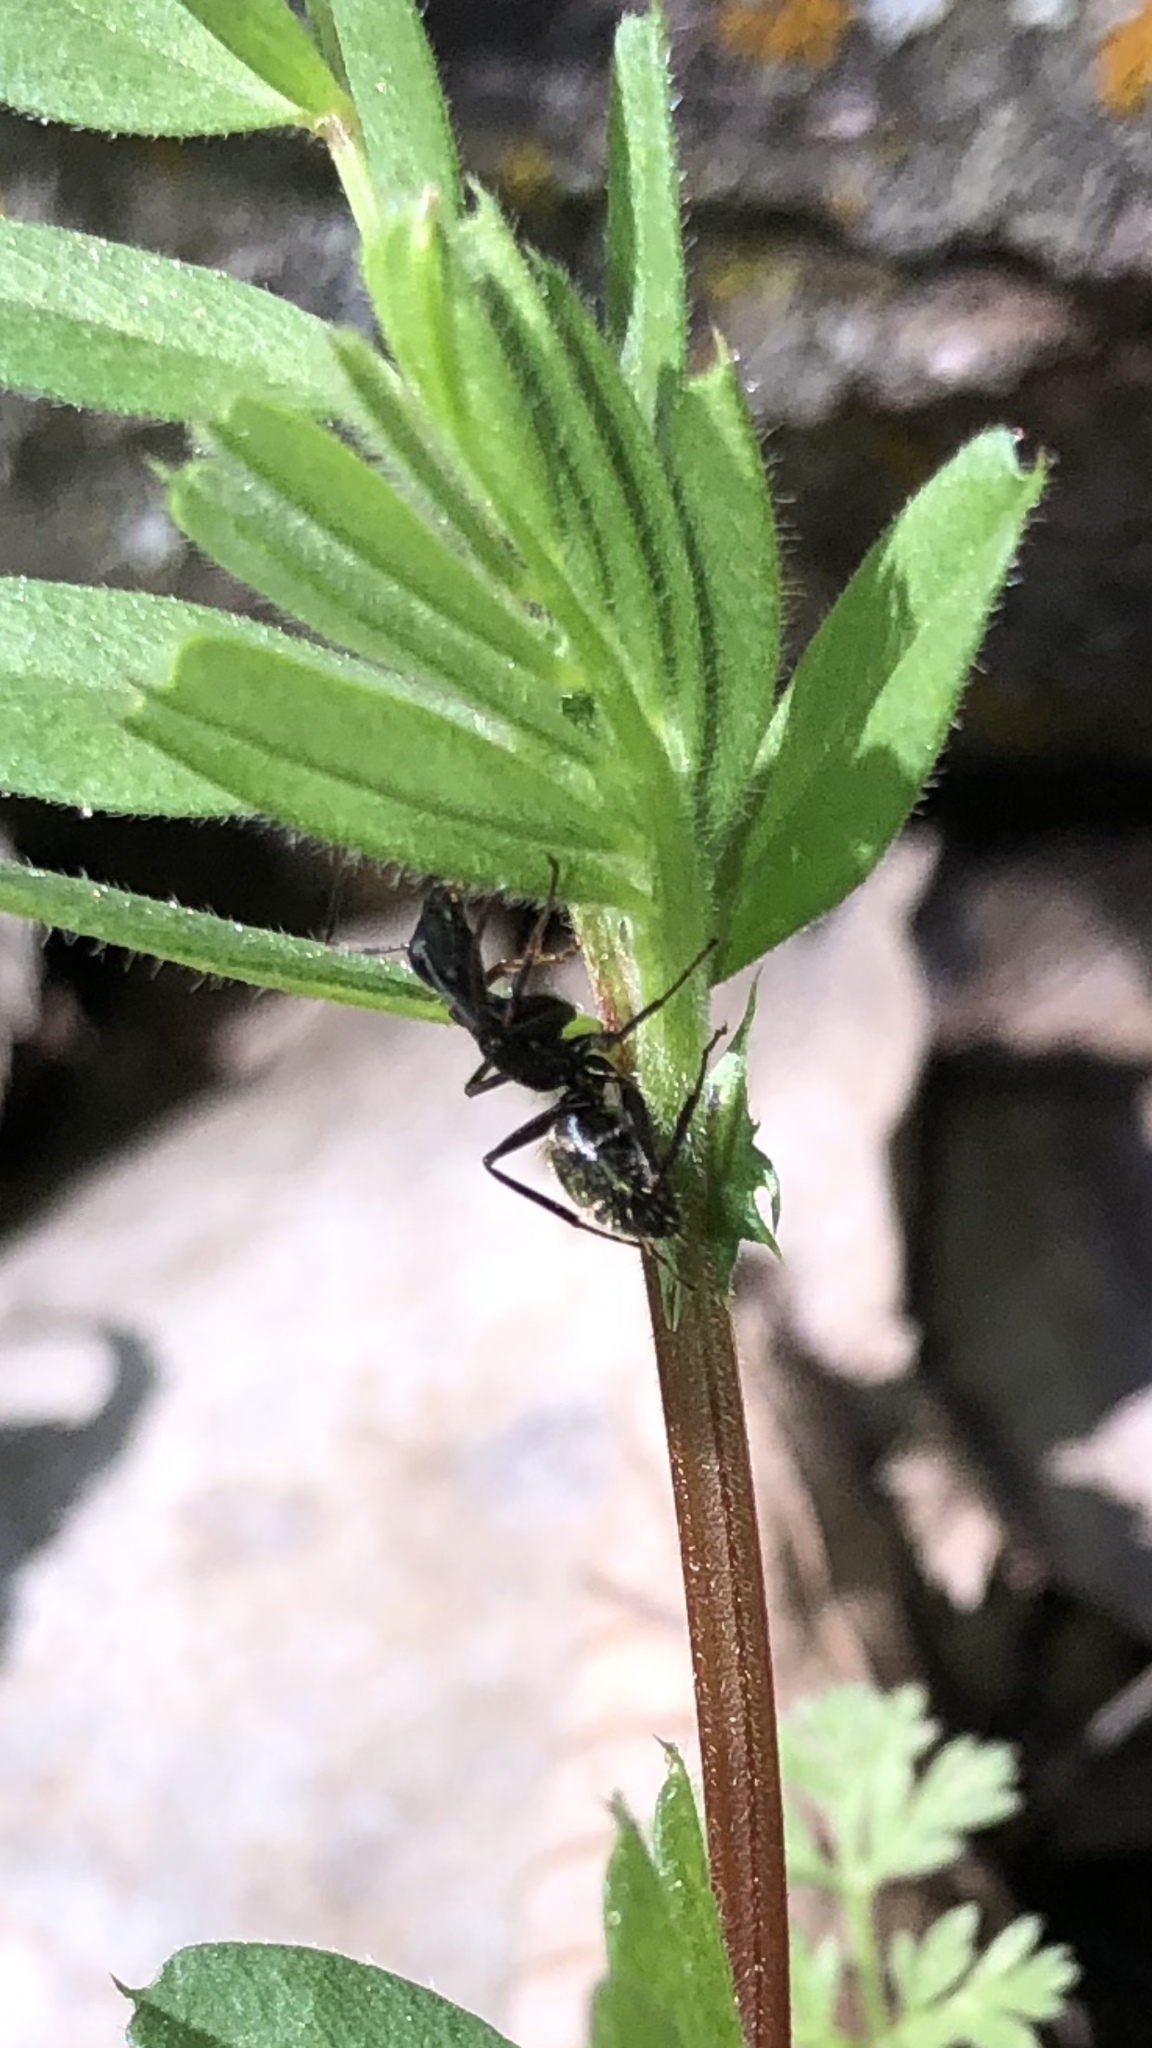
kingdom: Animalia
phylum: Arthropoda
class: Insecta
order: Hymenoptera
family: Formicidae
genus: Camponotus
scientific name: Camponotus pennsylvanicus
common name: Black carpenter ant
